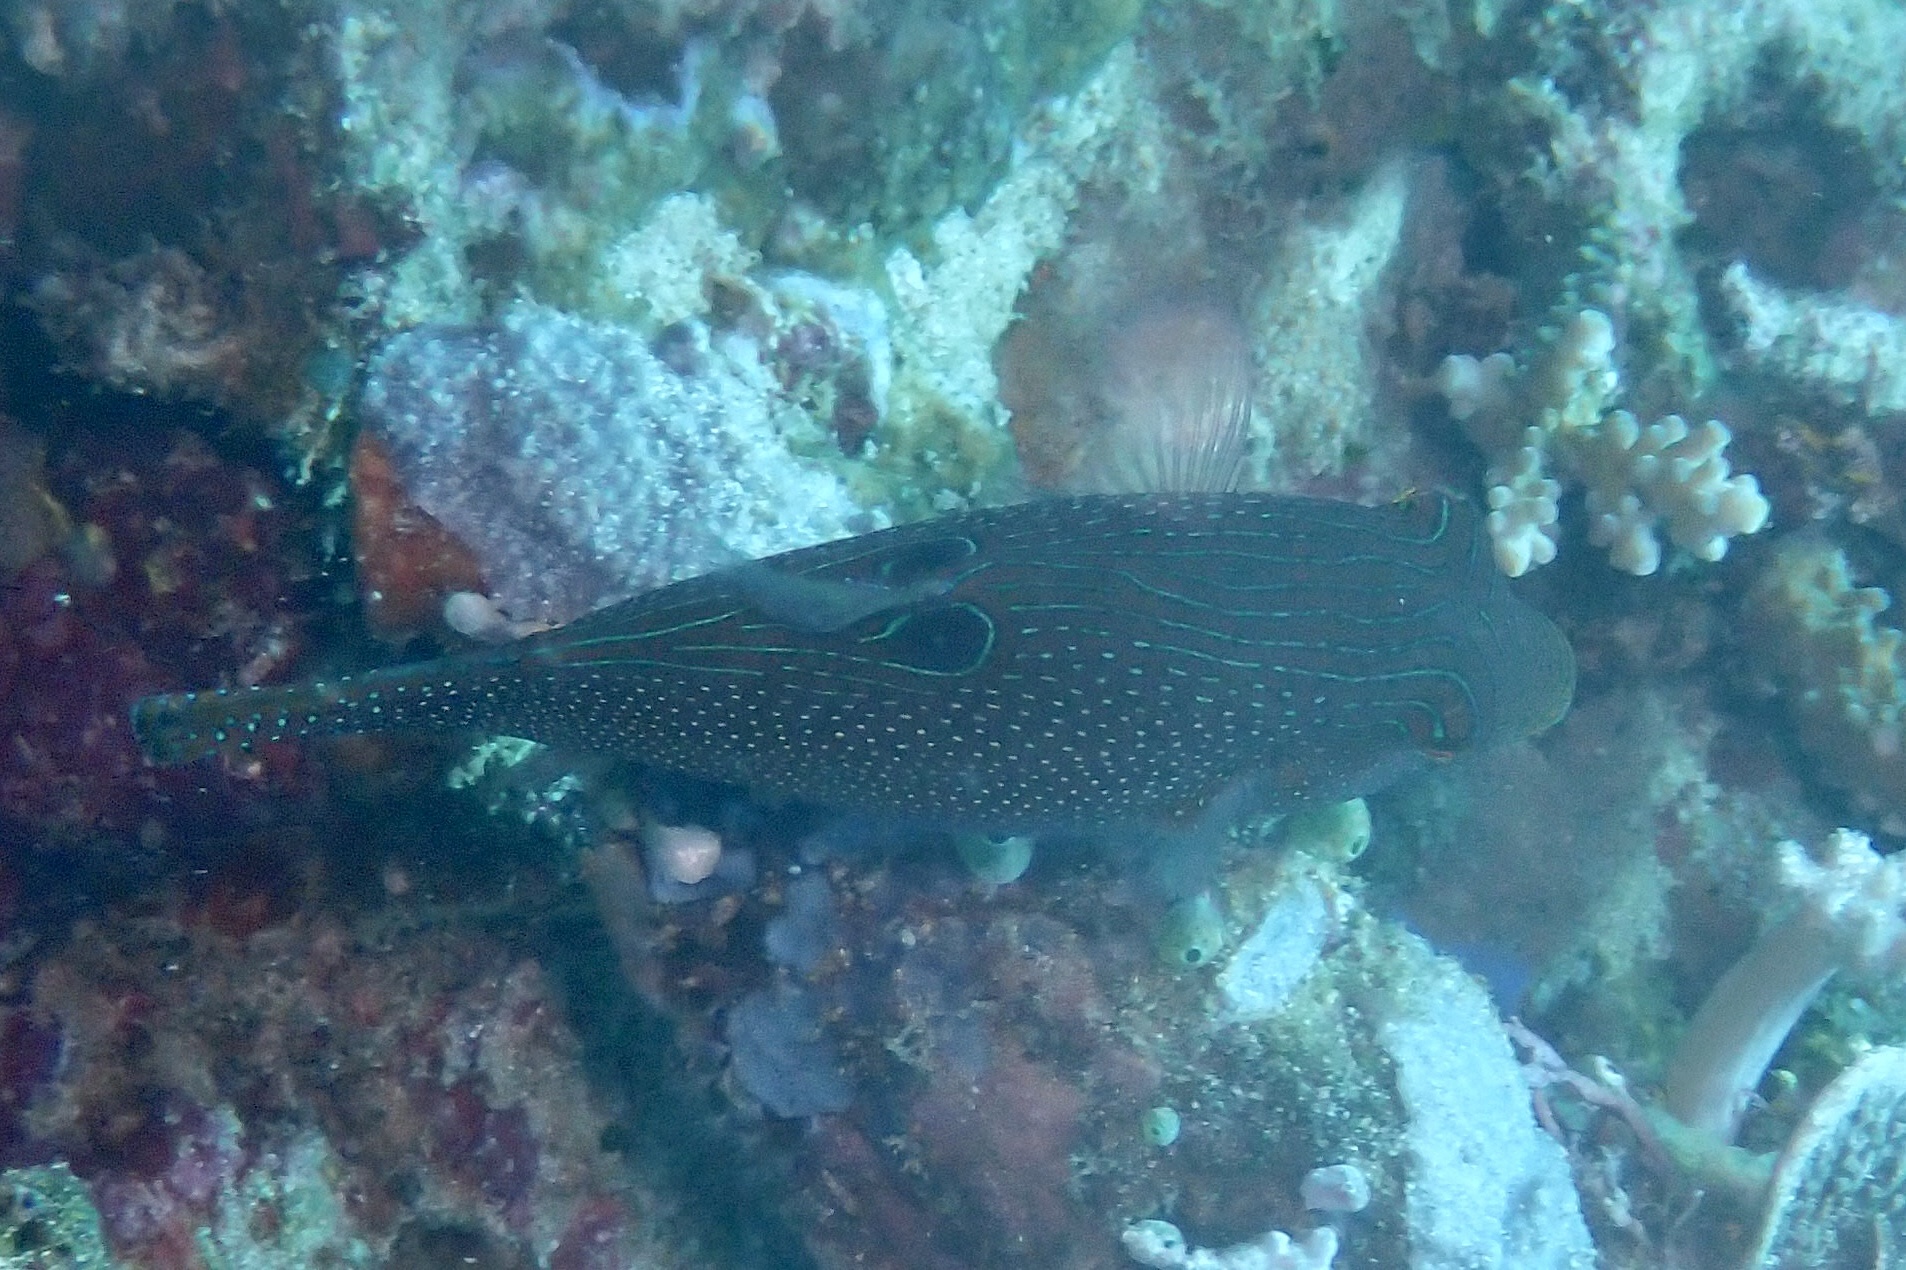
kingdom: Animalia
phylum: Chordata
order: Tetraodontiformes
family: Tetraodontidae
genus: Canthigaster
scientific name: Canthigaster papua
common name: False-eyed pufferfish
